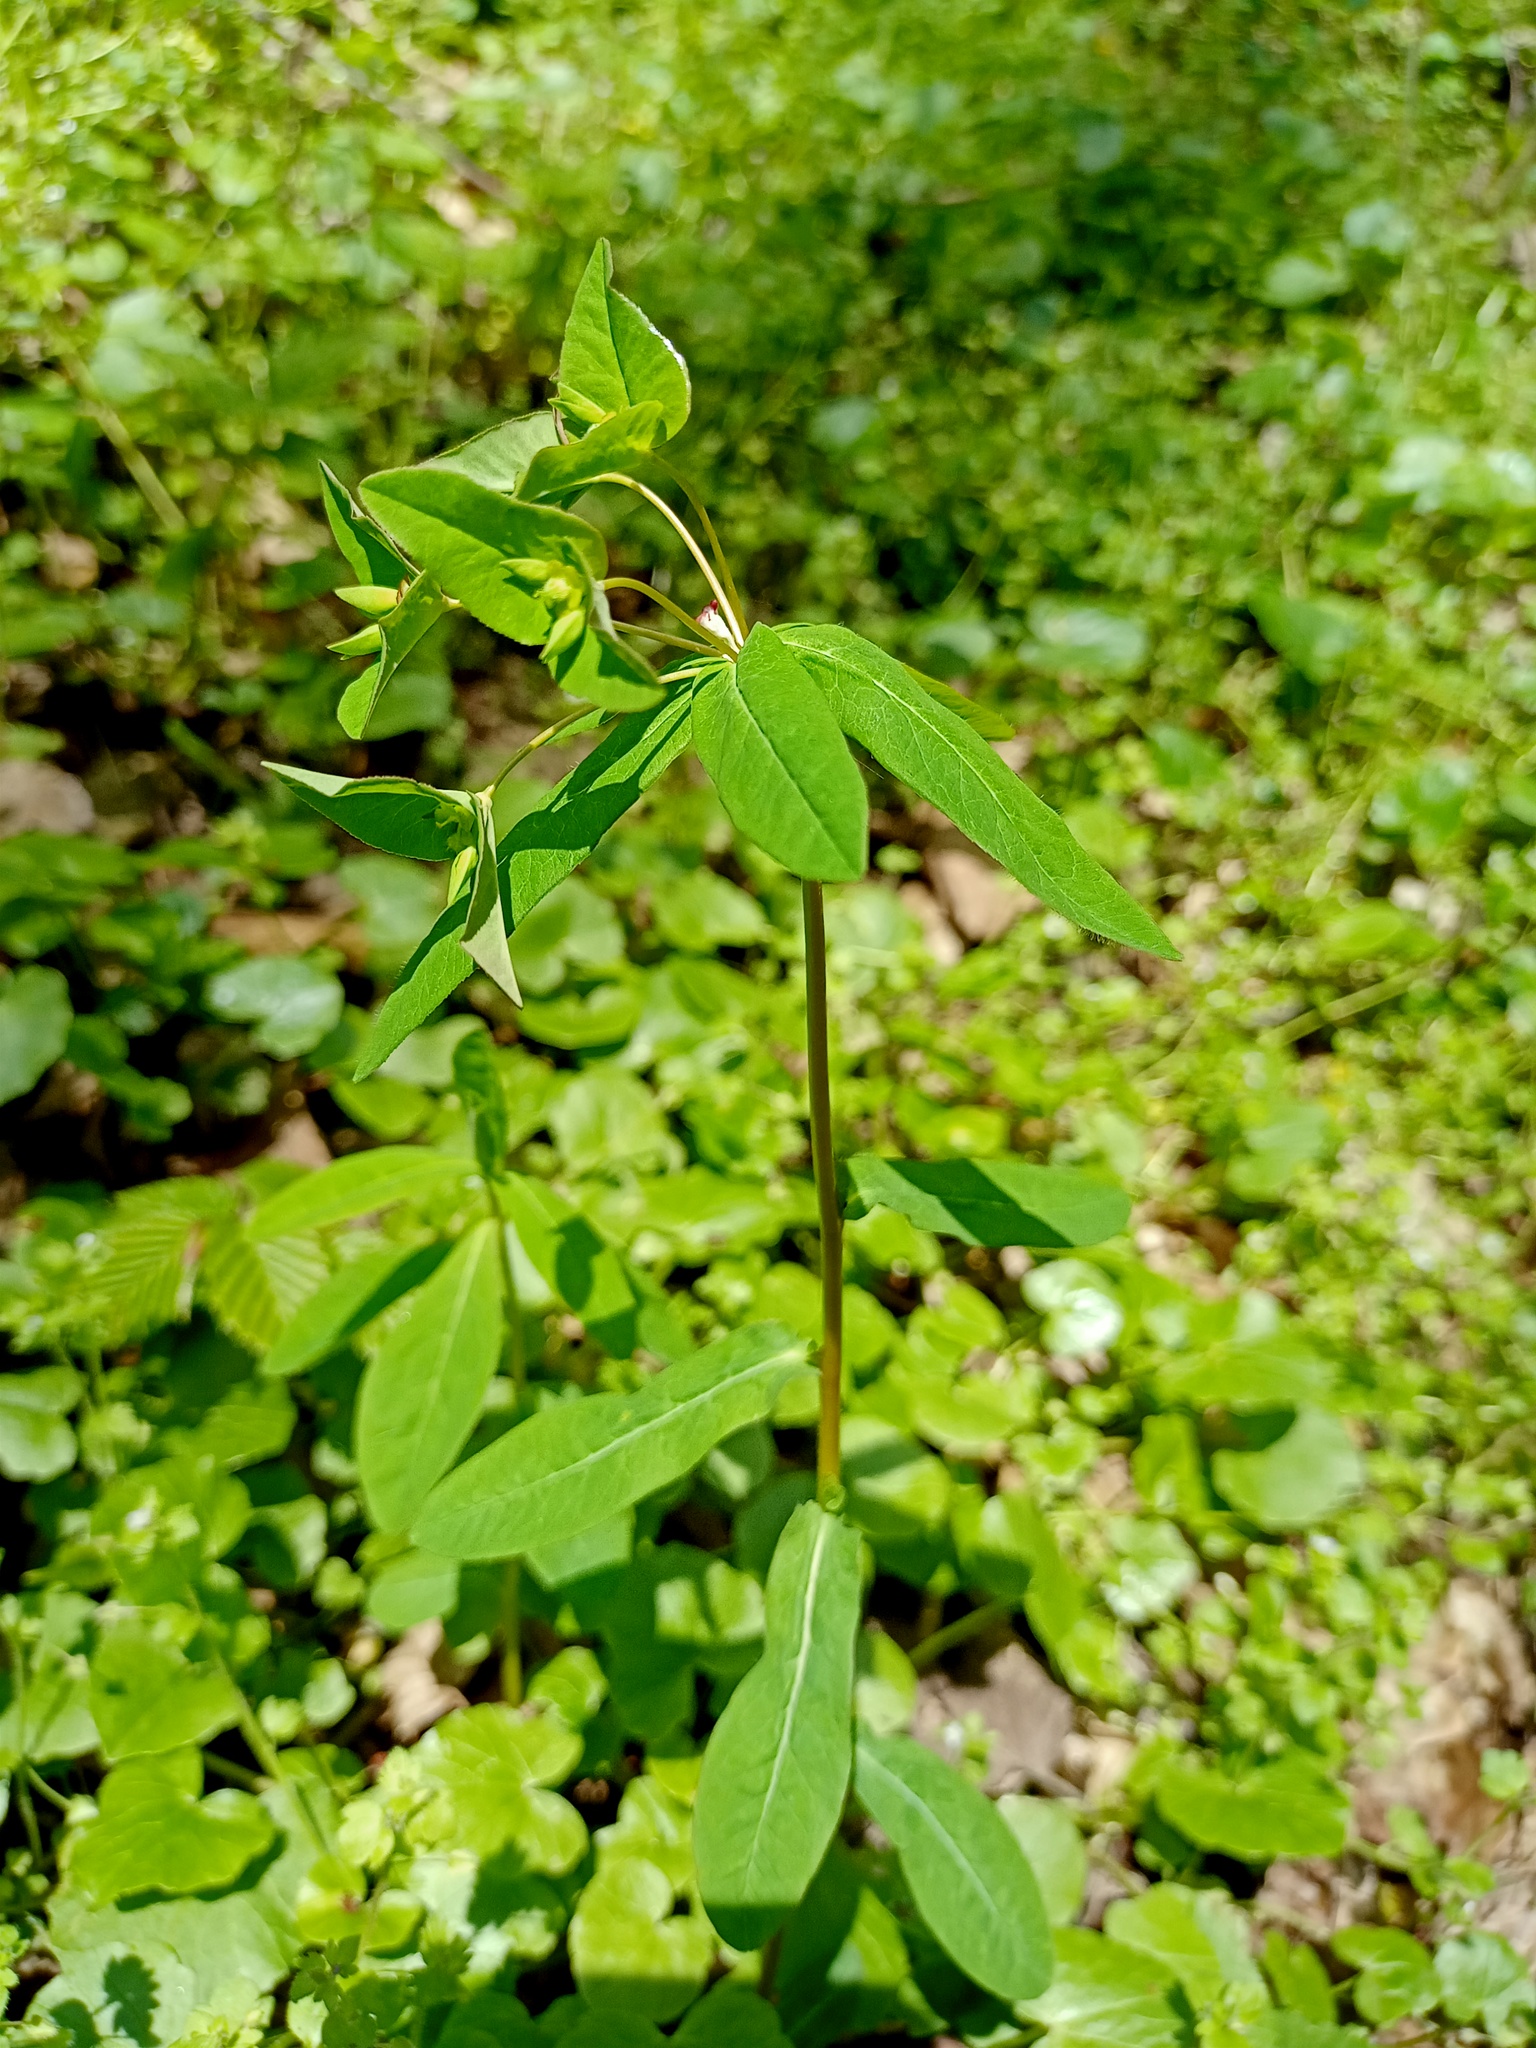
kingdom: Plantae
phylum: Tracheophyta
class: Magnoliopsida
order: Malpighiales
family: Euphorbiaceae
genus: Euphorbia
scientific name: Euphorbia dulcis
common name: Sweet spurge
